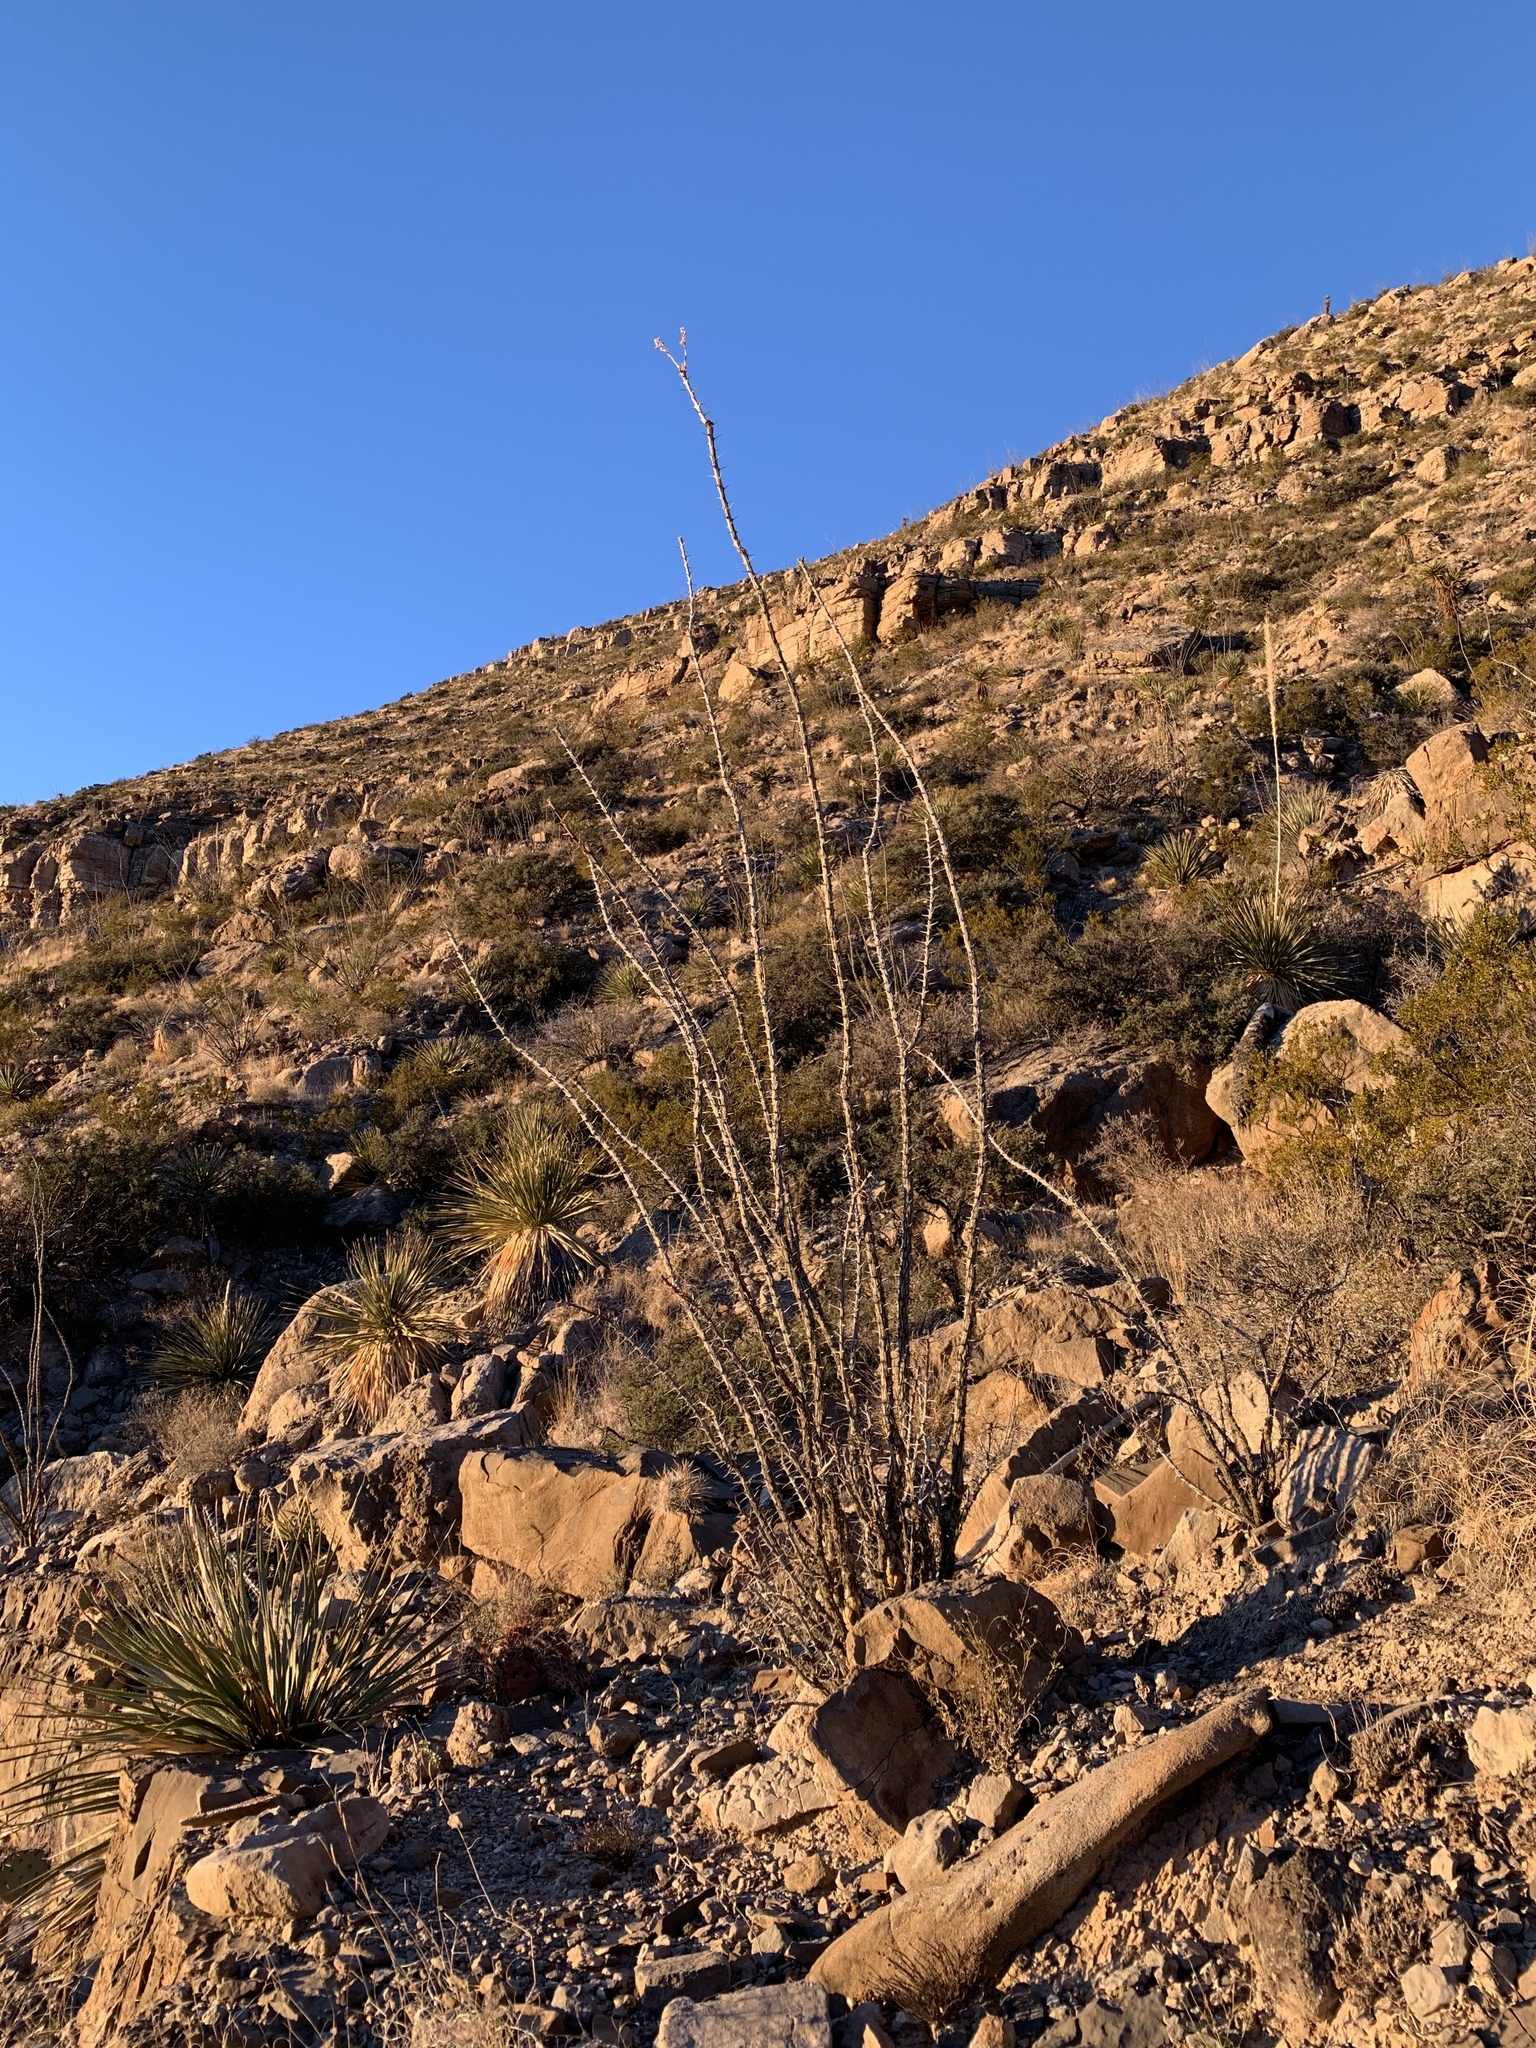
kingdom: Plantae
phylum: Tracheophyta
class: Magnoliopsida
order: Ericales
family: Fouquieriaceae
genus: Fouquieria
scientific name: Fouquieria splendens
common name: Vine-cactus
